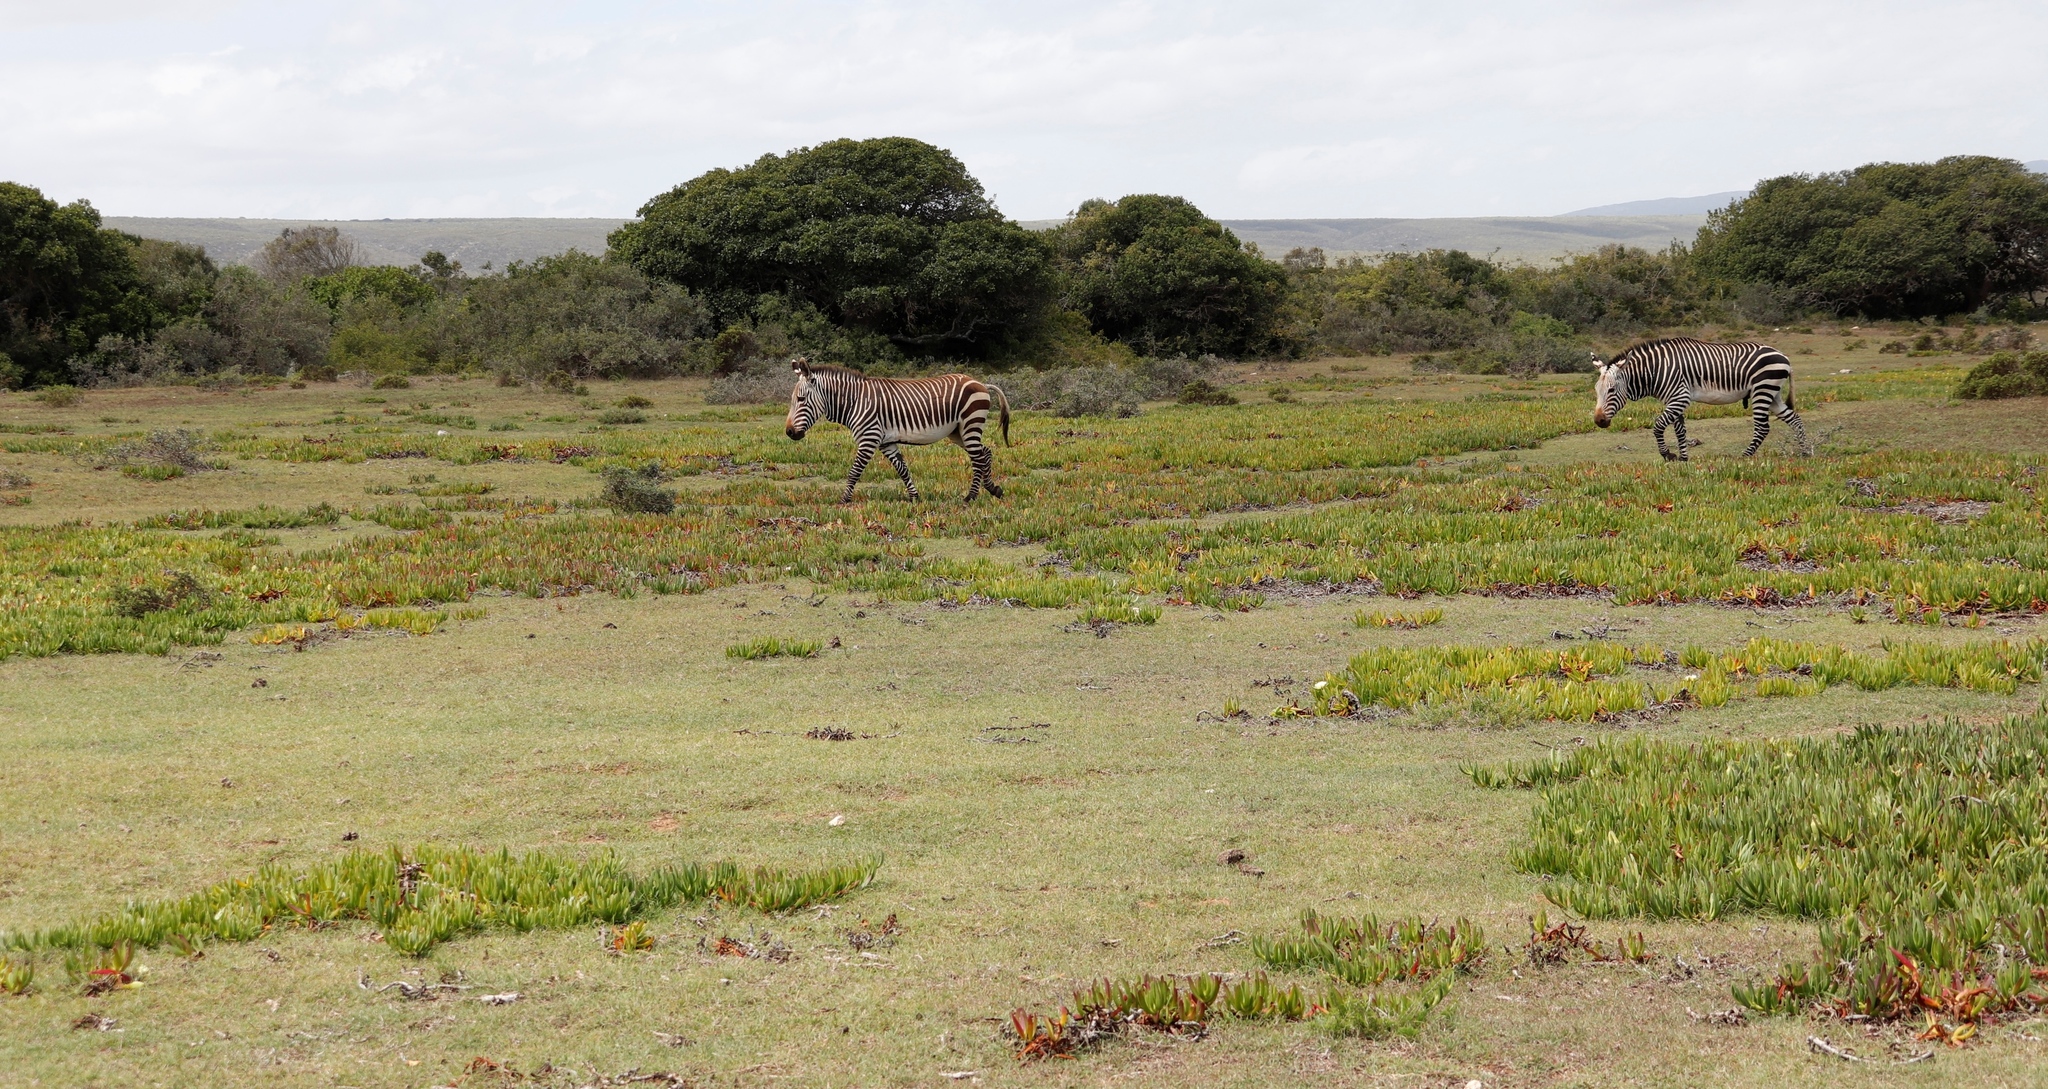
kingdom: Animalia
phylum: Chordata
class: Mammalia
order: Perissodactyla
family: Equidae
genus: Equus
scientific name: Equus zebra
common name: Mountain zebra
